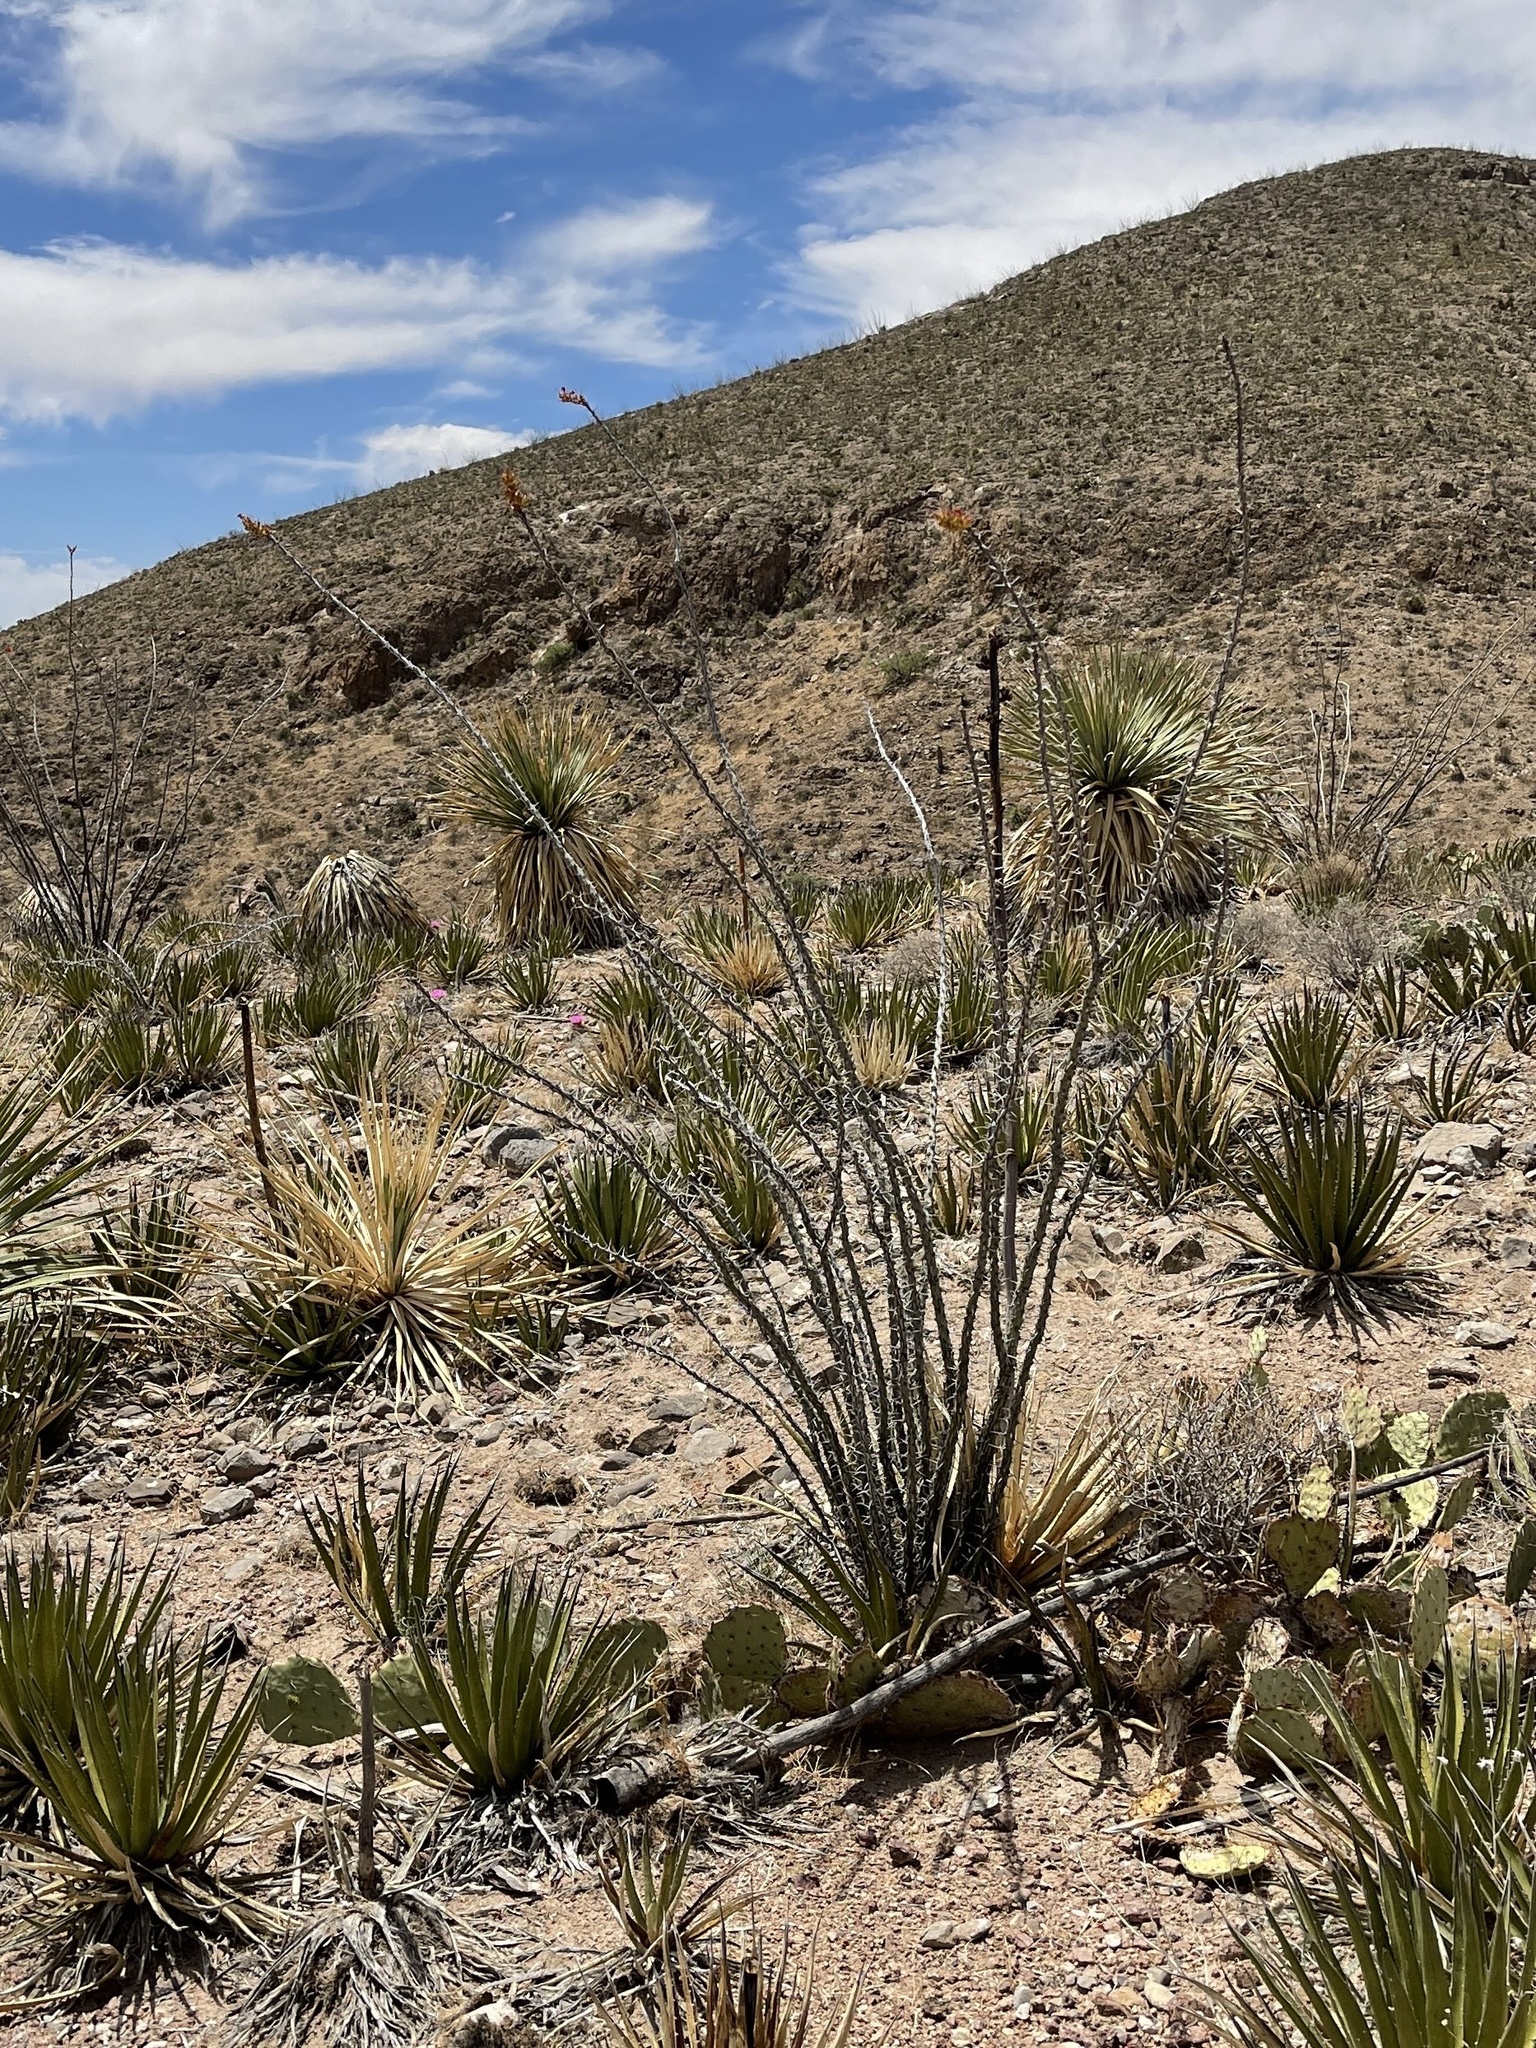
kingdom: Plantae
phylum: Tracheophyta
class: Magnoliopsida
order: Ericales
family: Fouquieriaceae
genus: Fouquieria
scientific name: Fouquieria splendens
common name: Vine-cactus
